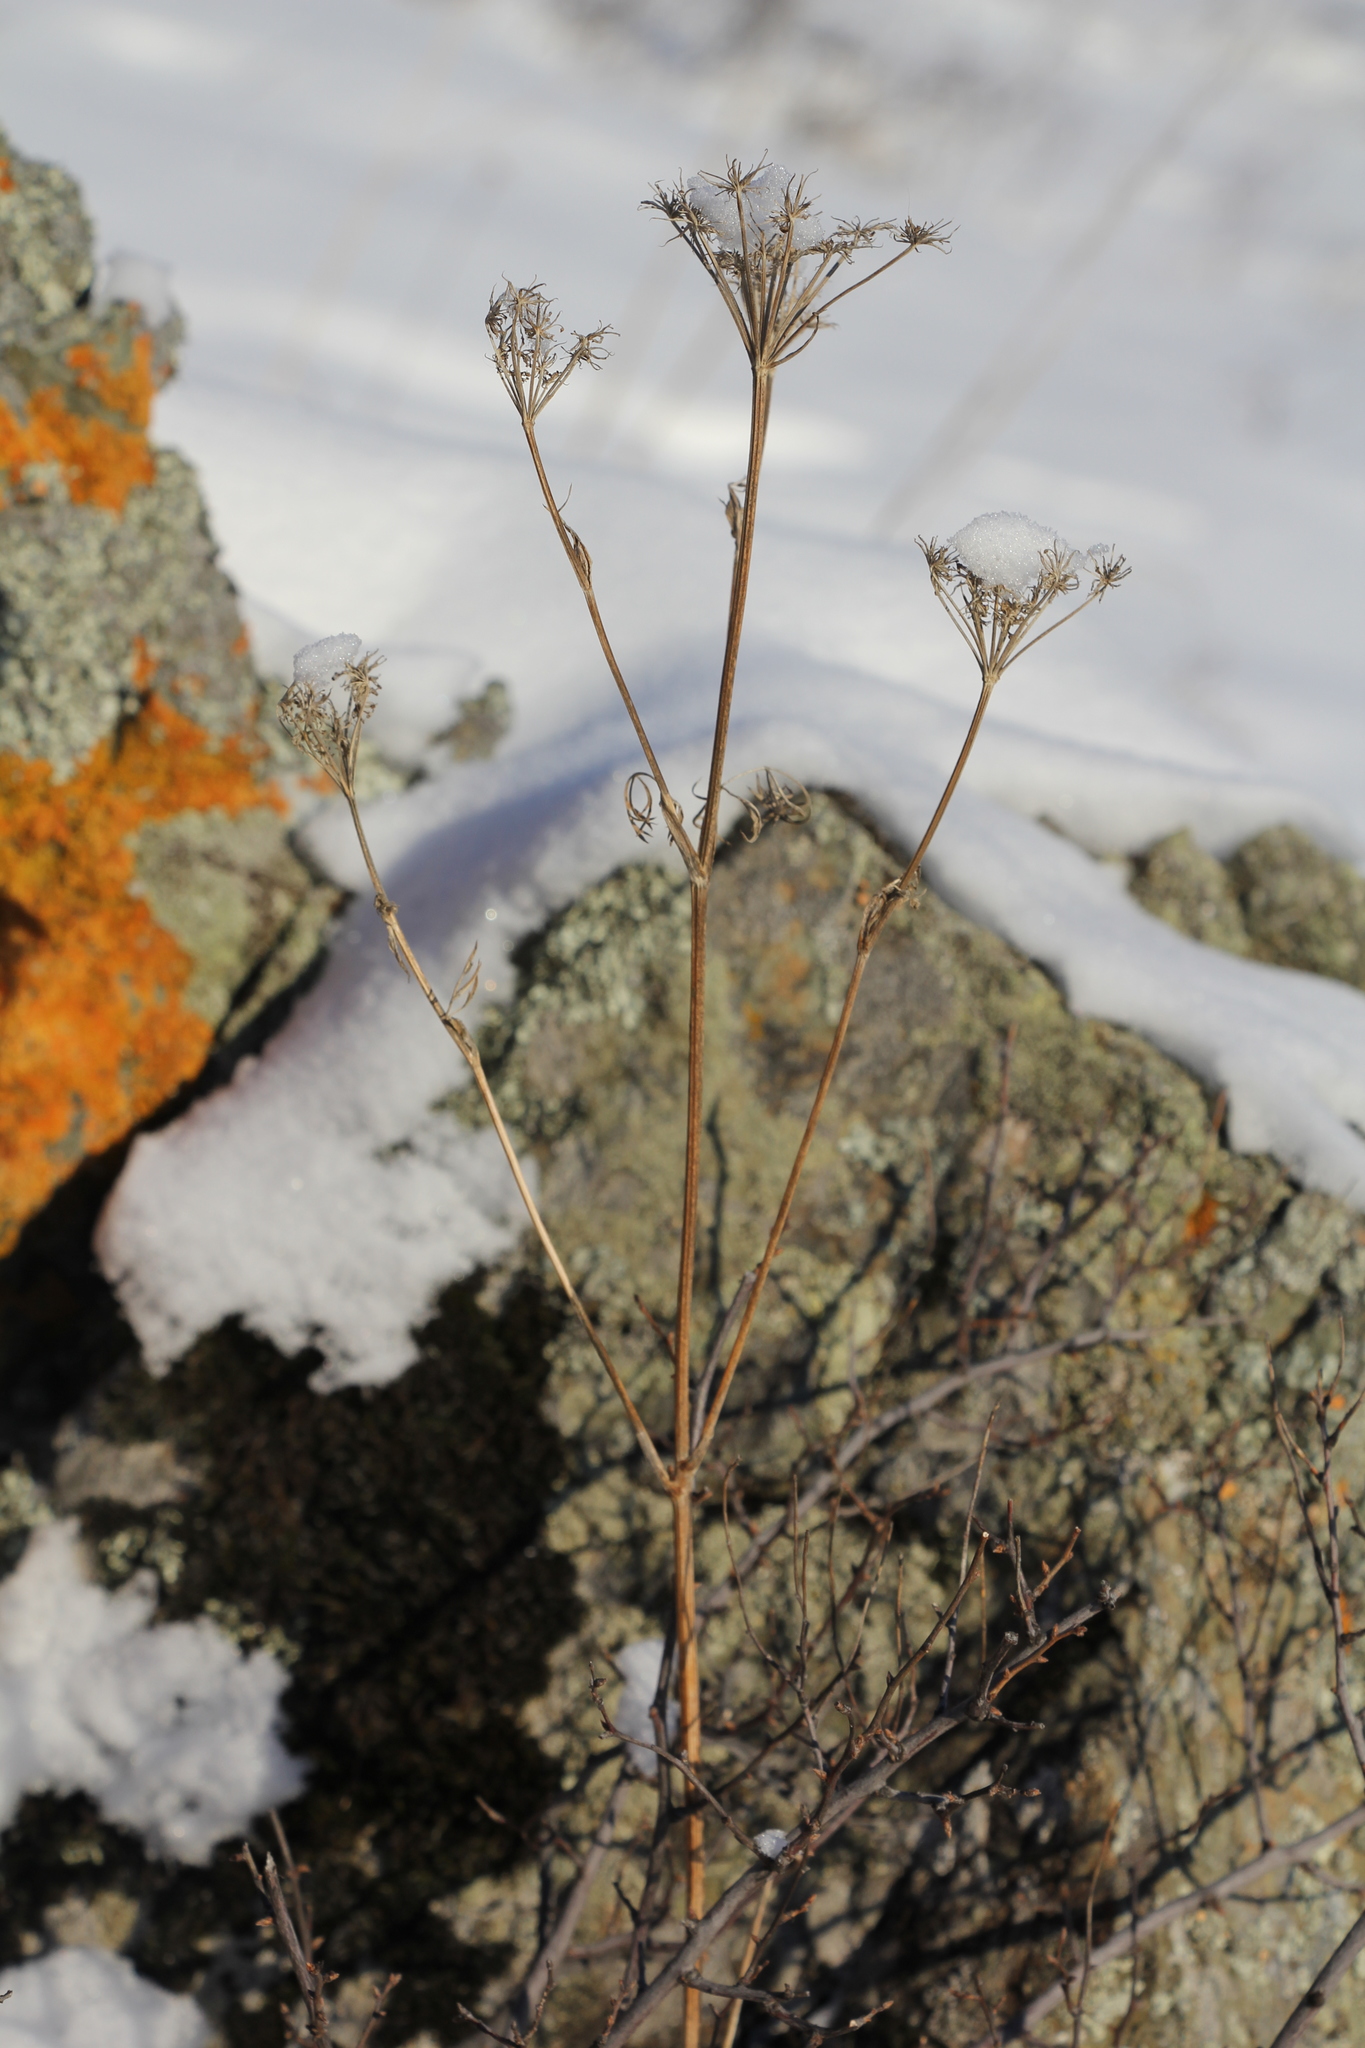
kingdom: Plantae
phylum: Tracheophyta
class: Magnoliopsida
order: Apiales
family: Apiaceae
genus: Kitagawia
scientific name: Kitagawia baicalensis
